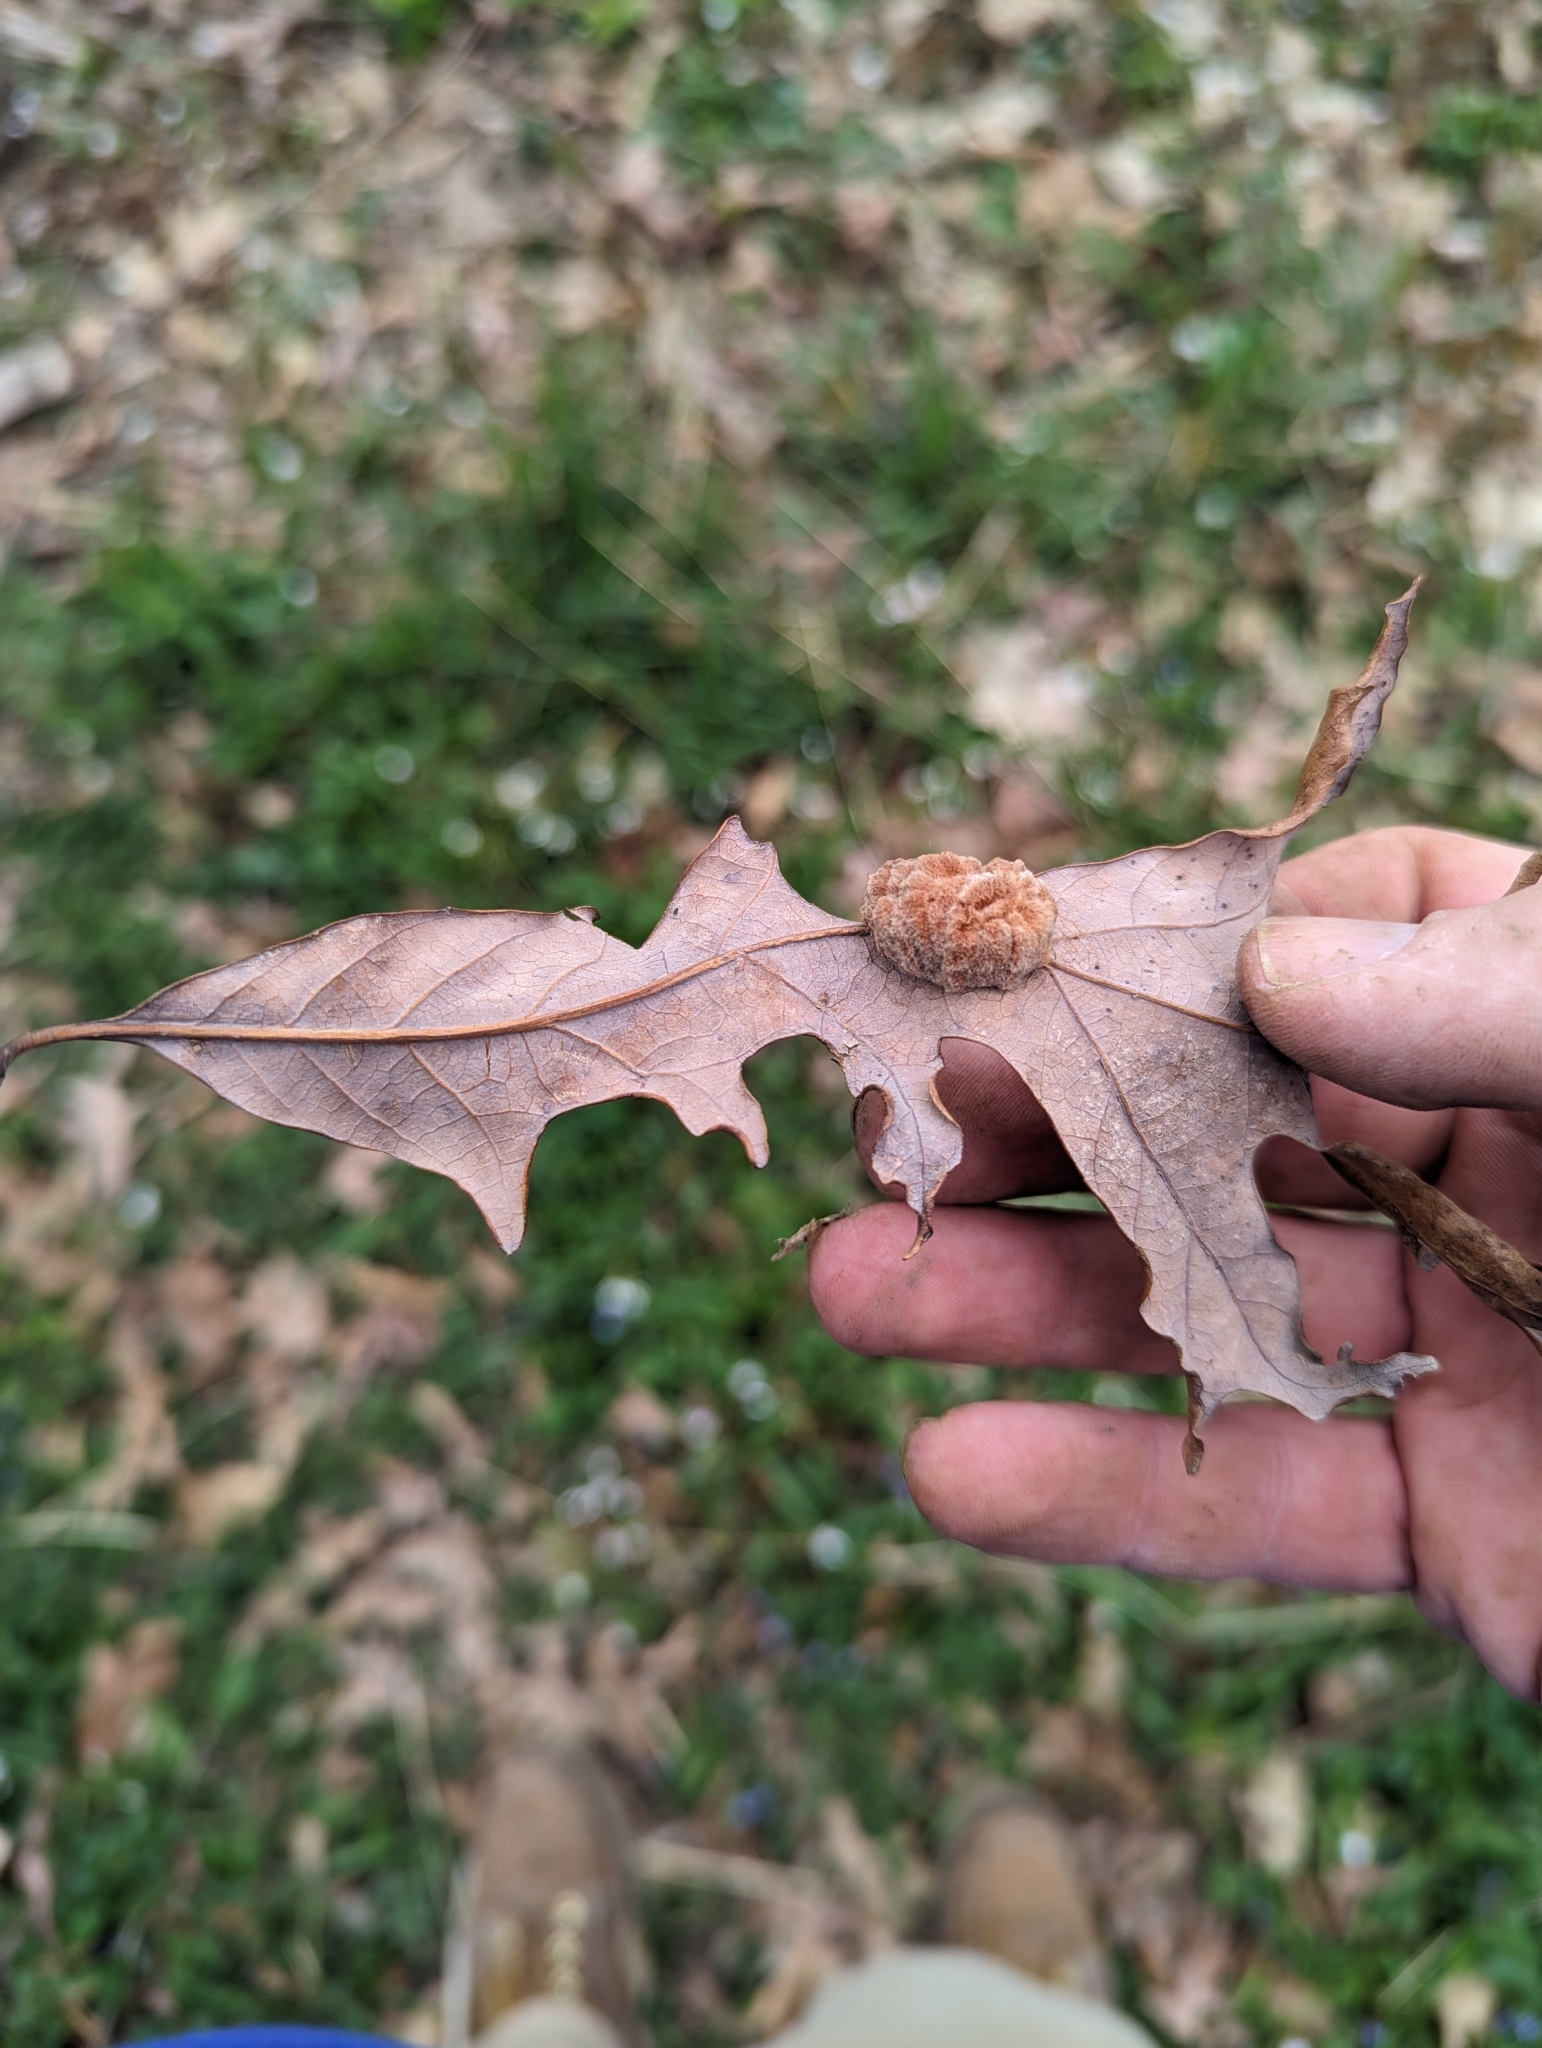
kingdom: Animalia
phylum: Arthropoda
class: Insecta
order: Hymenoptera
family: Cynipidae
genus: Andricus
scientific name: Andricus quercusflocci
